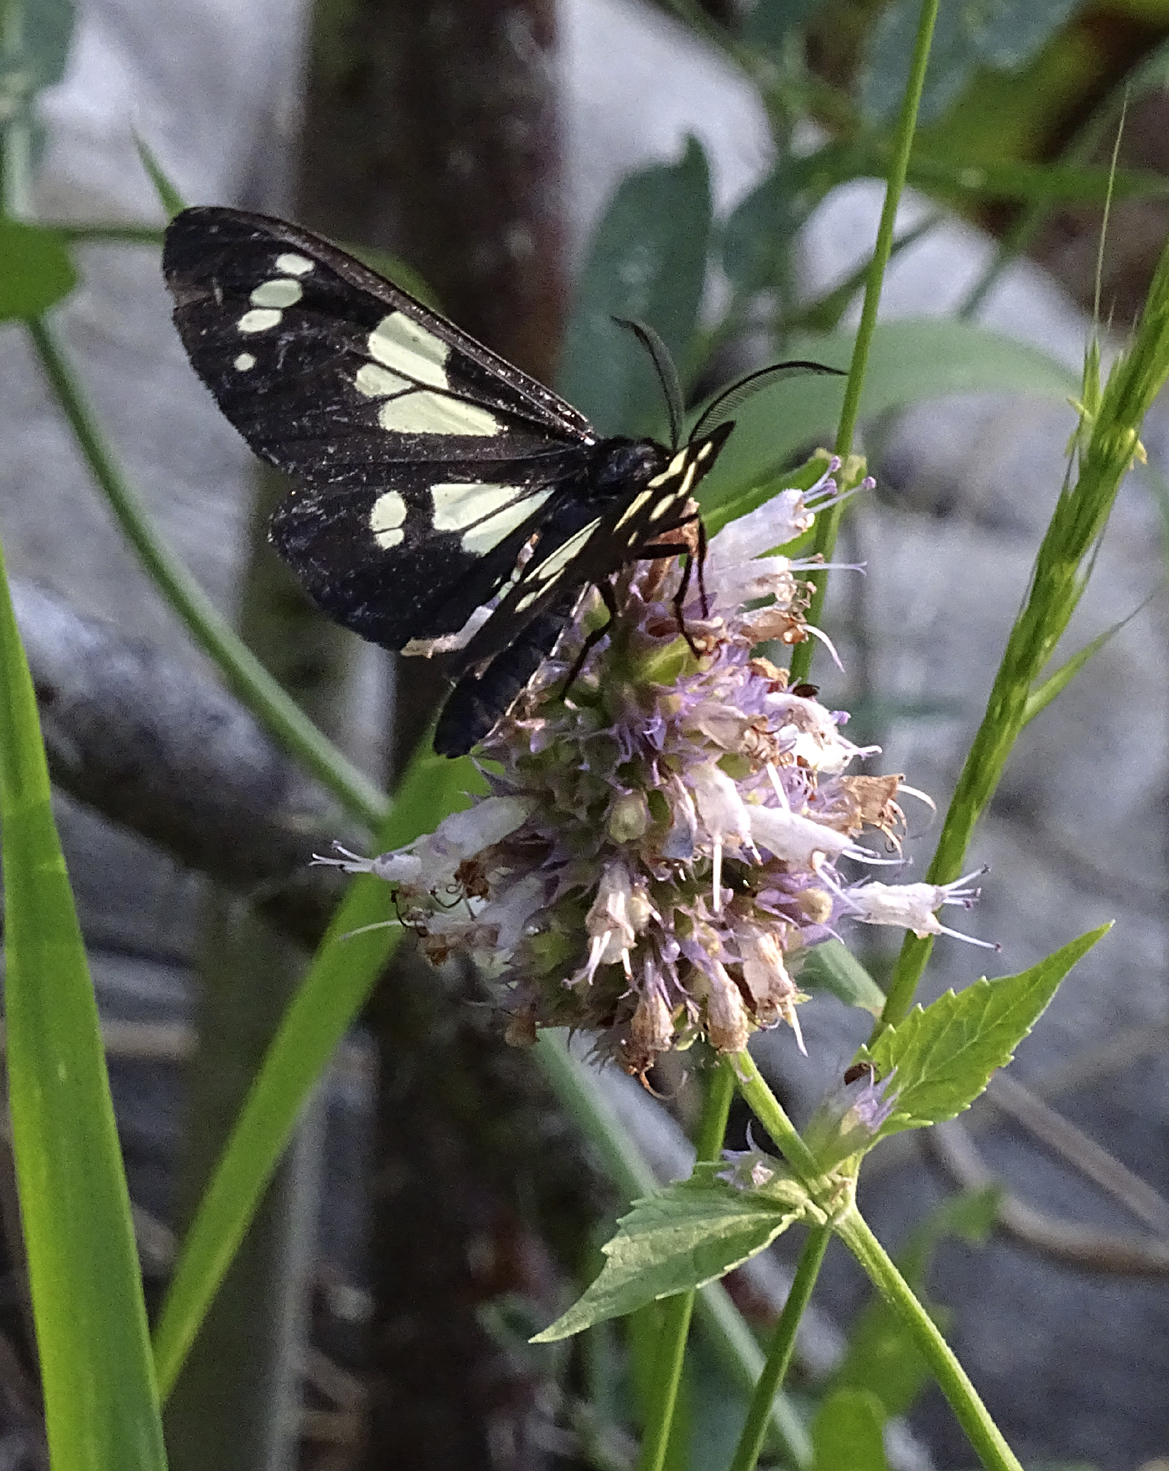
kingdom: Animalia
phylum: Arthropoda
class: Insecta
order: Lepidoptera
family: Erebidae
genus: Gnophaela
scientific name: Gnophaela latipennis
